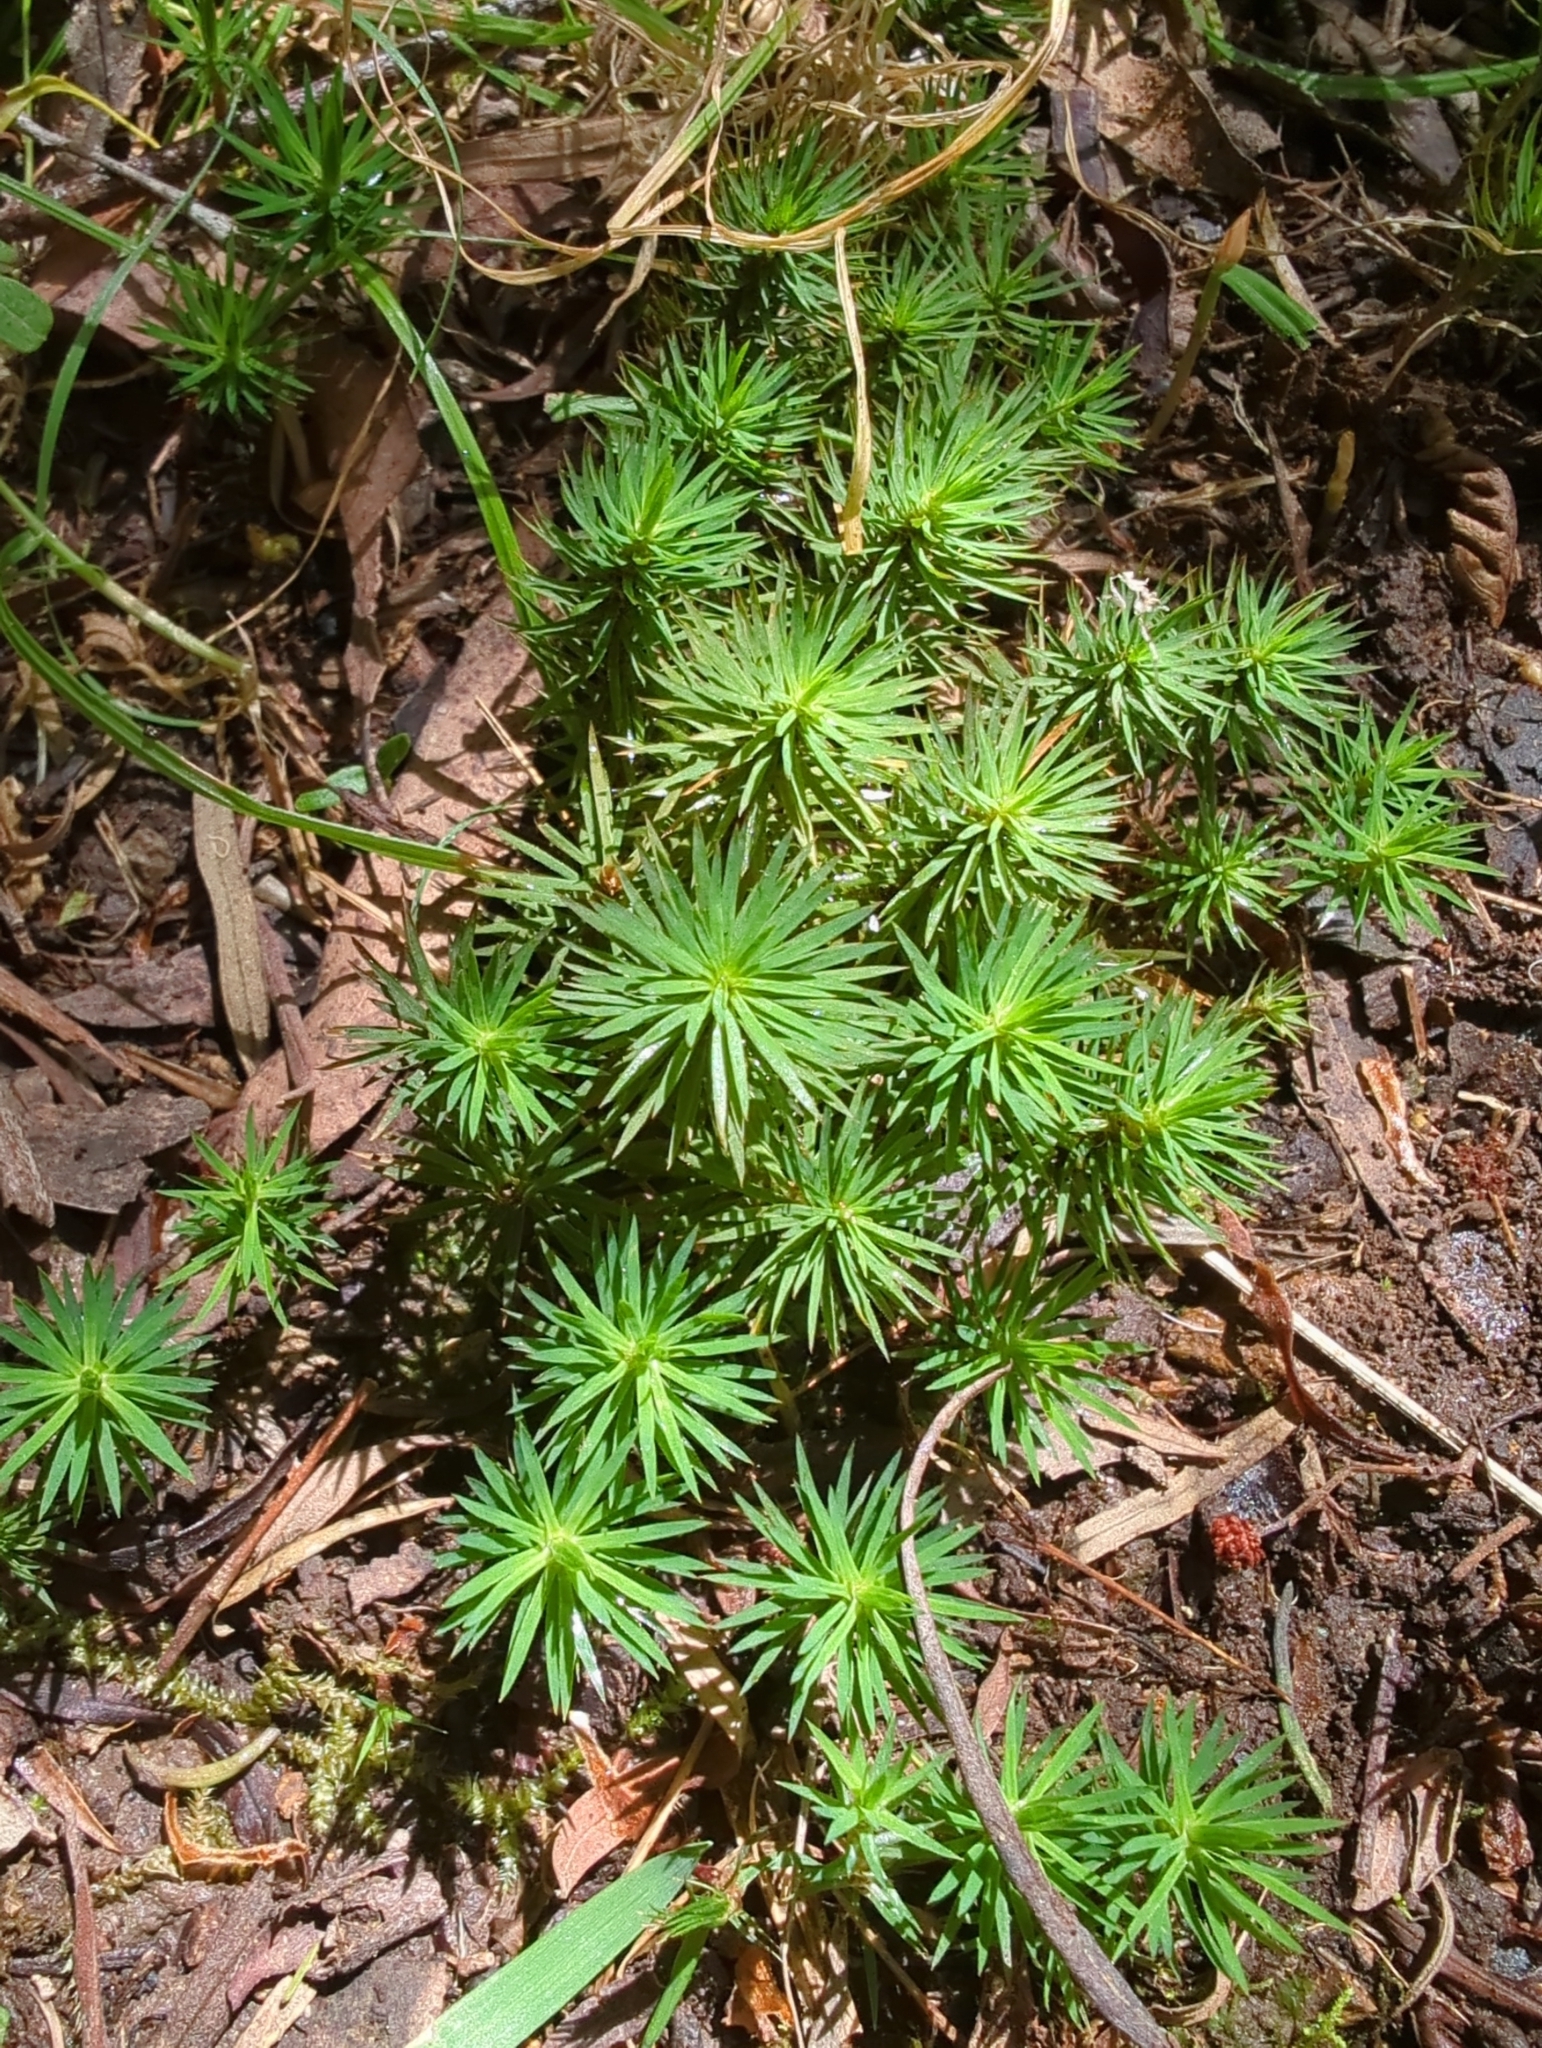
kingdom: Plantae
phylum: Bryophyta
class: Polytrichopsida
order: Polytrichales
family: Polytrichaceae
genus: Dawsonia
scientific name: Dawsonia polytrichoides
